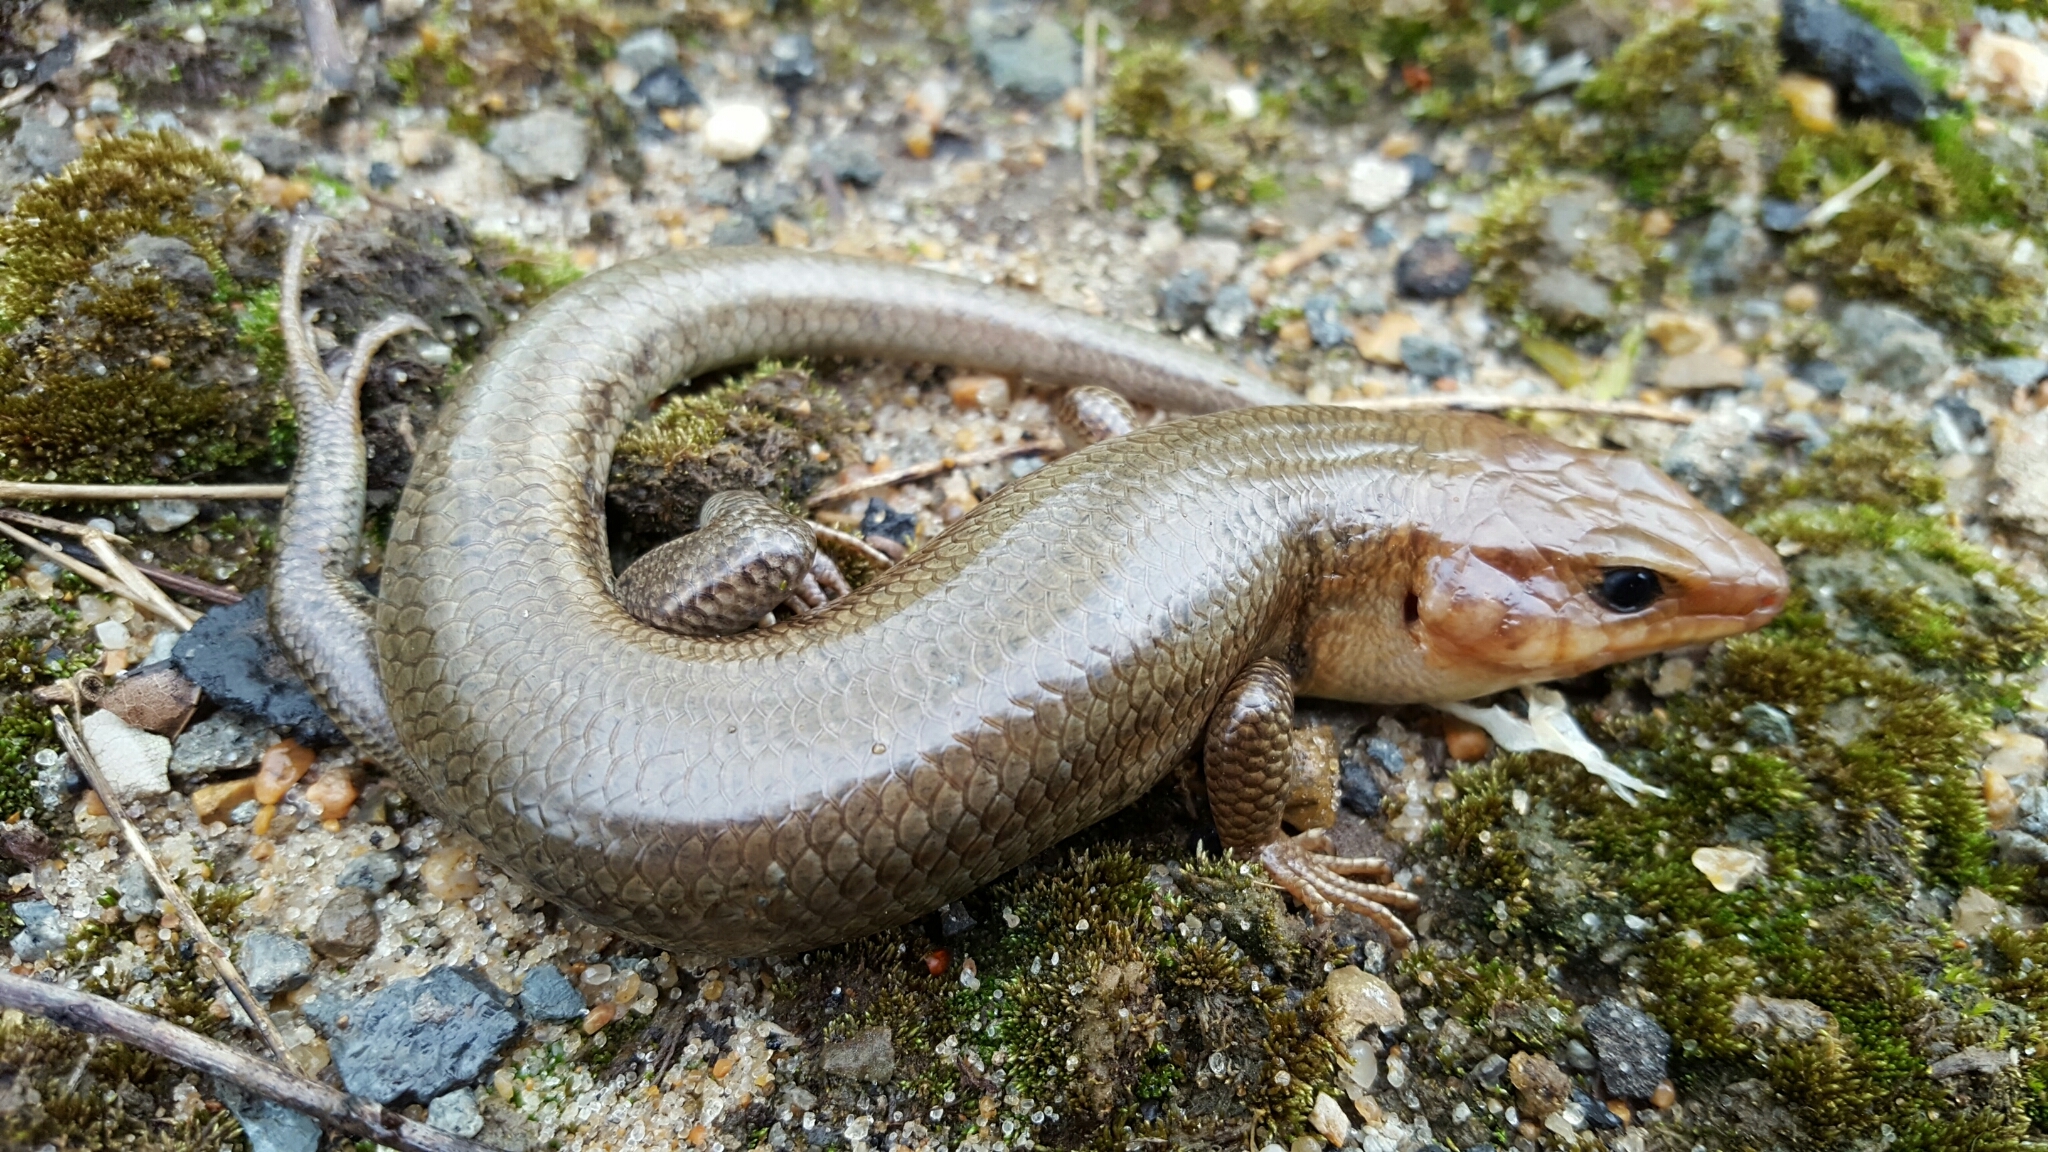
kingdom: Animalia
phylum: Chordata
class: Squamata
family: Scincidae
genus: Plestiodon
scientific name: Plestiodon laticeps
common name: Broadhead skink
